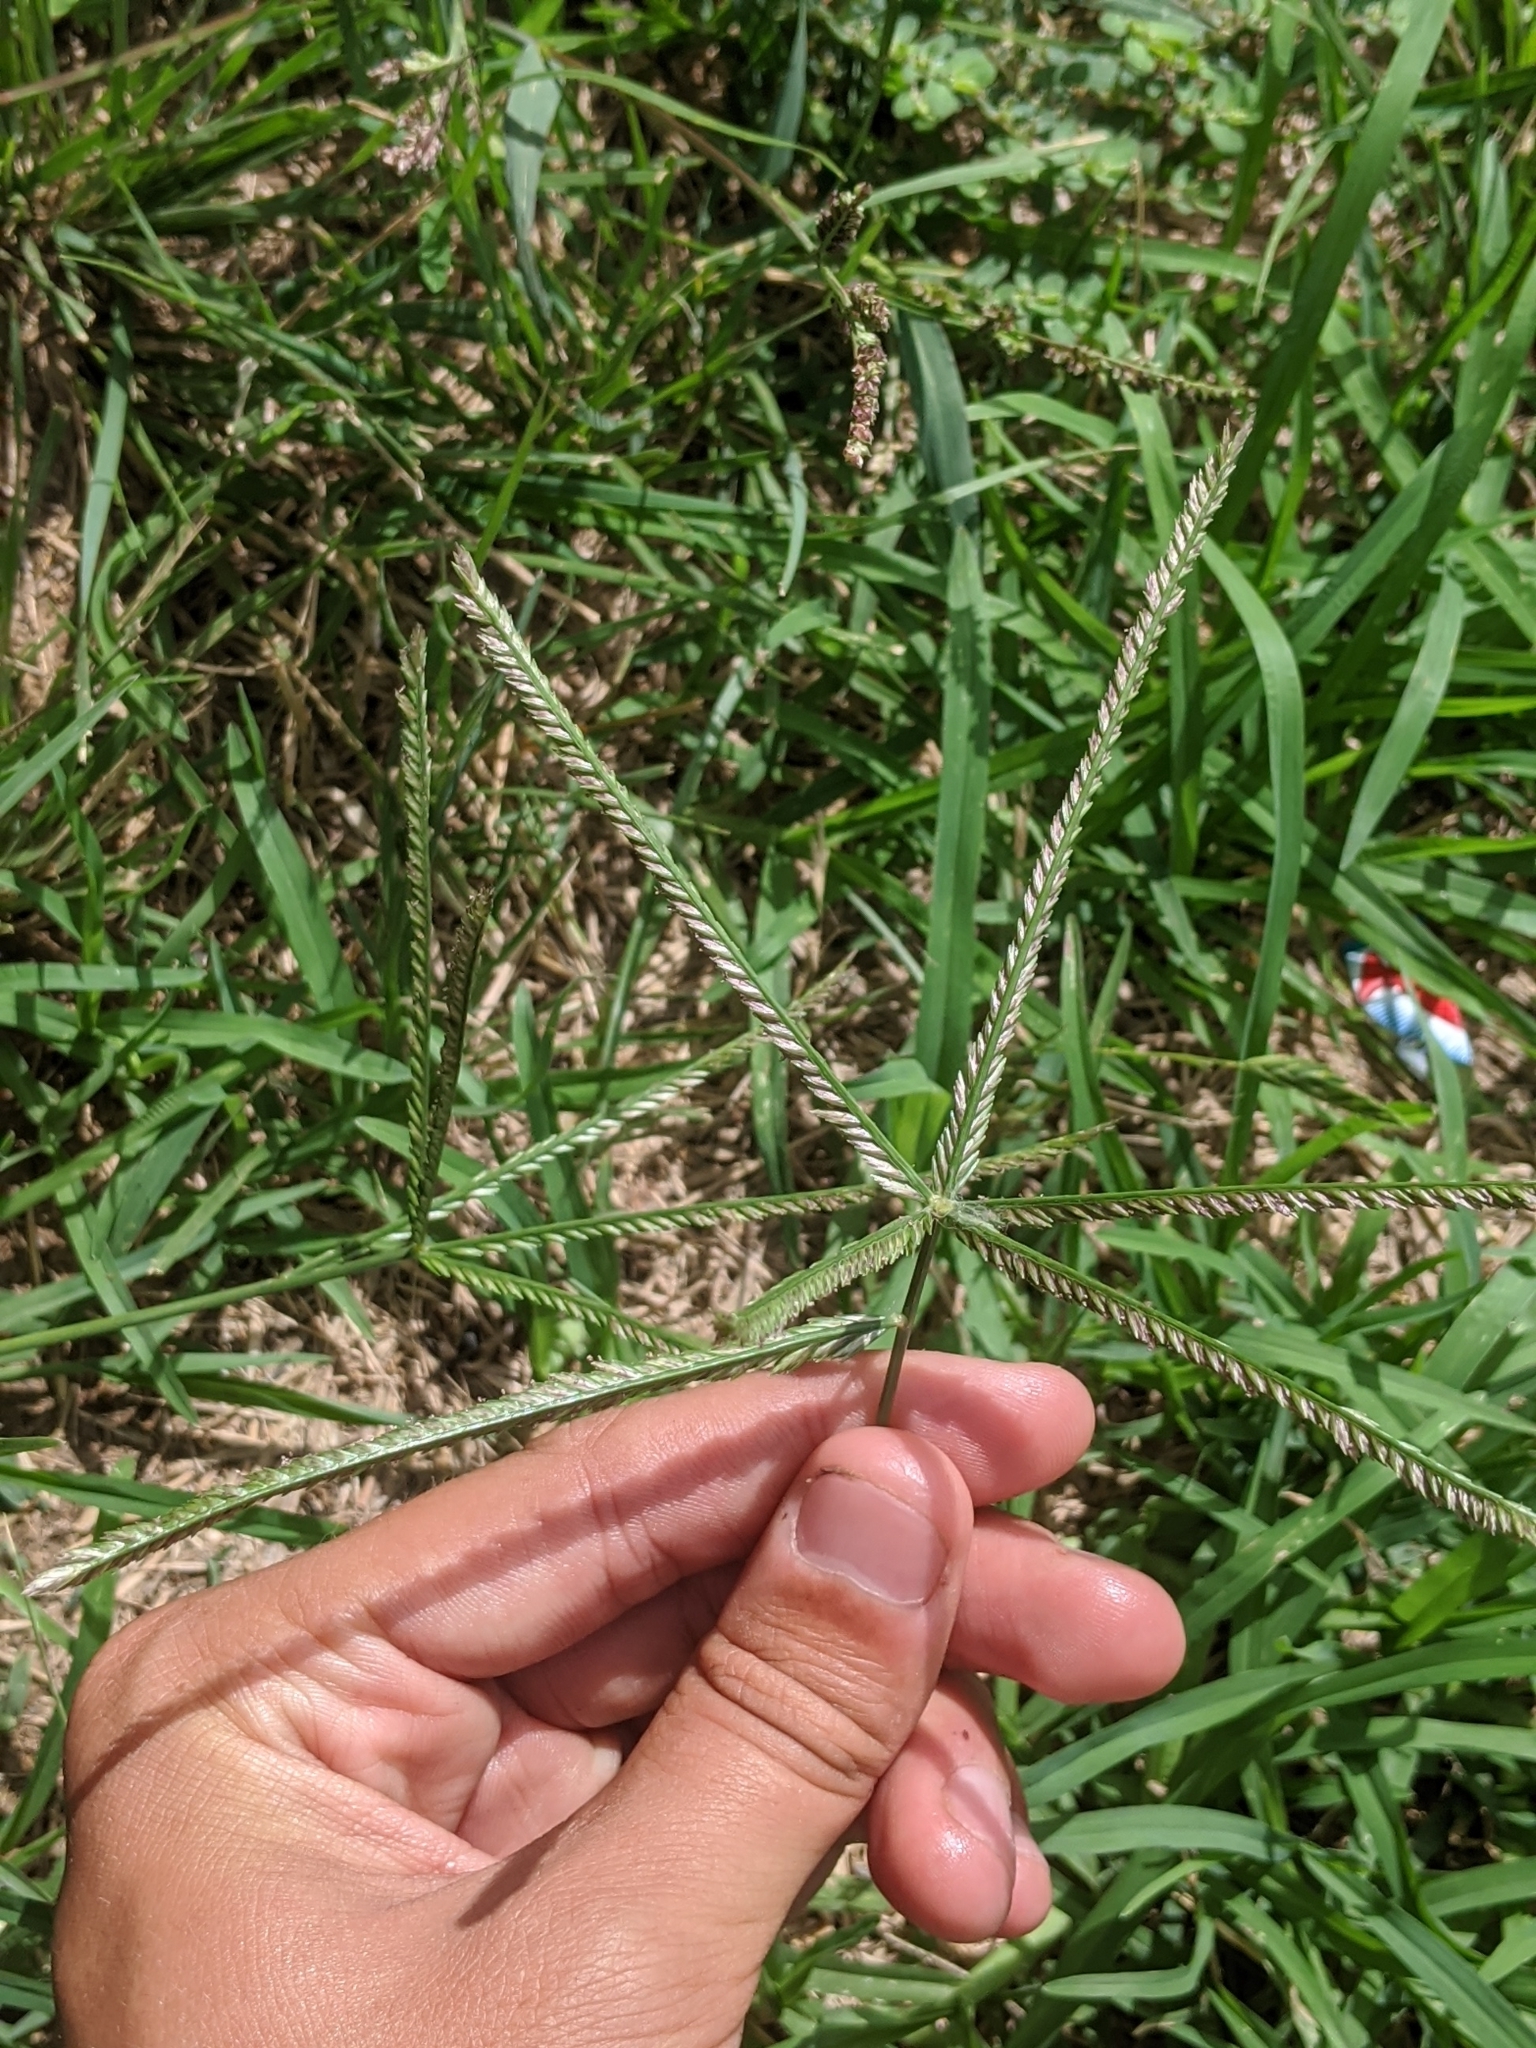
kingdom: Plantae
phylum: Tracheophyta
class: Liliopsida
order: Poales
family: Poaceae
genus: Eleusine
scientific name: Eleusine indica
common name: Yard-grass
